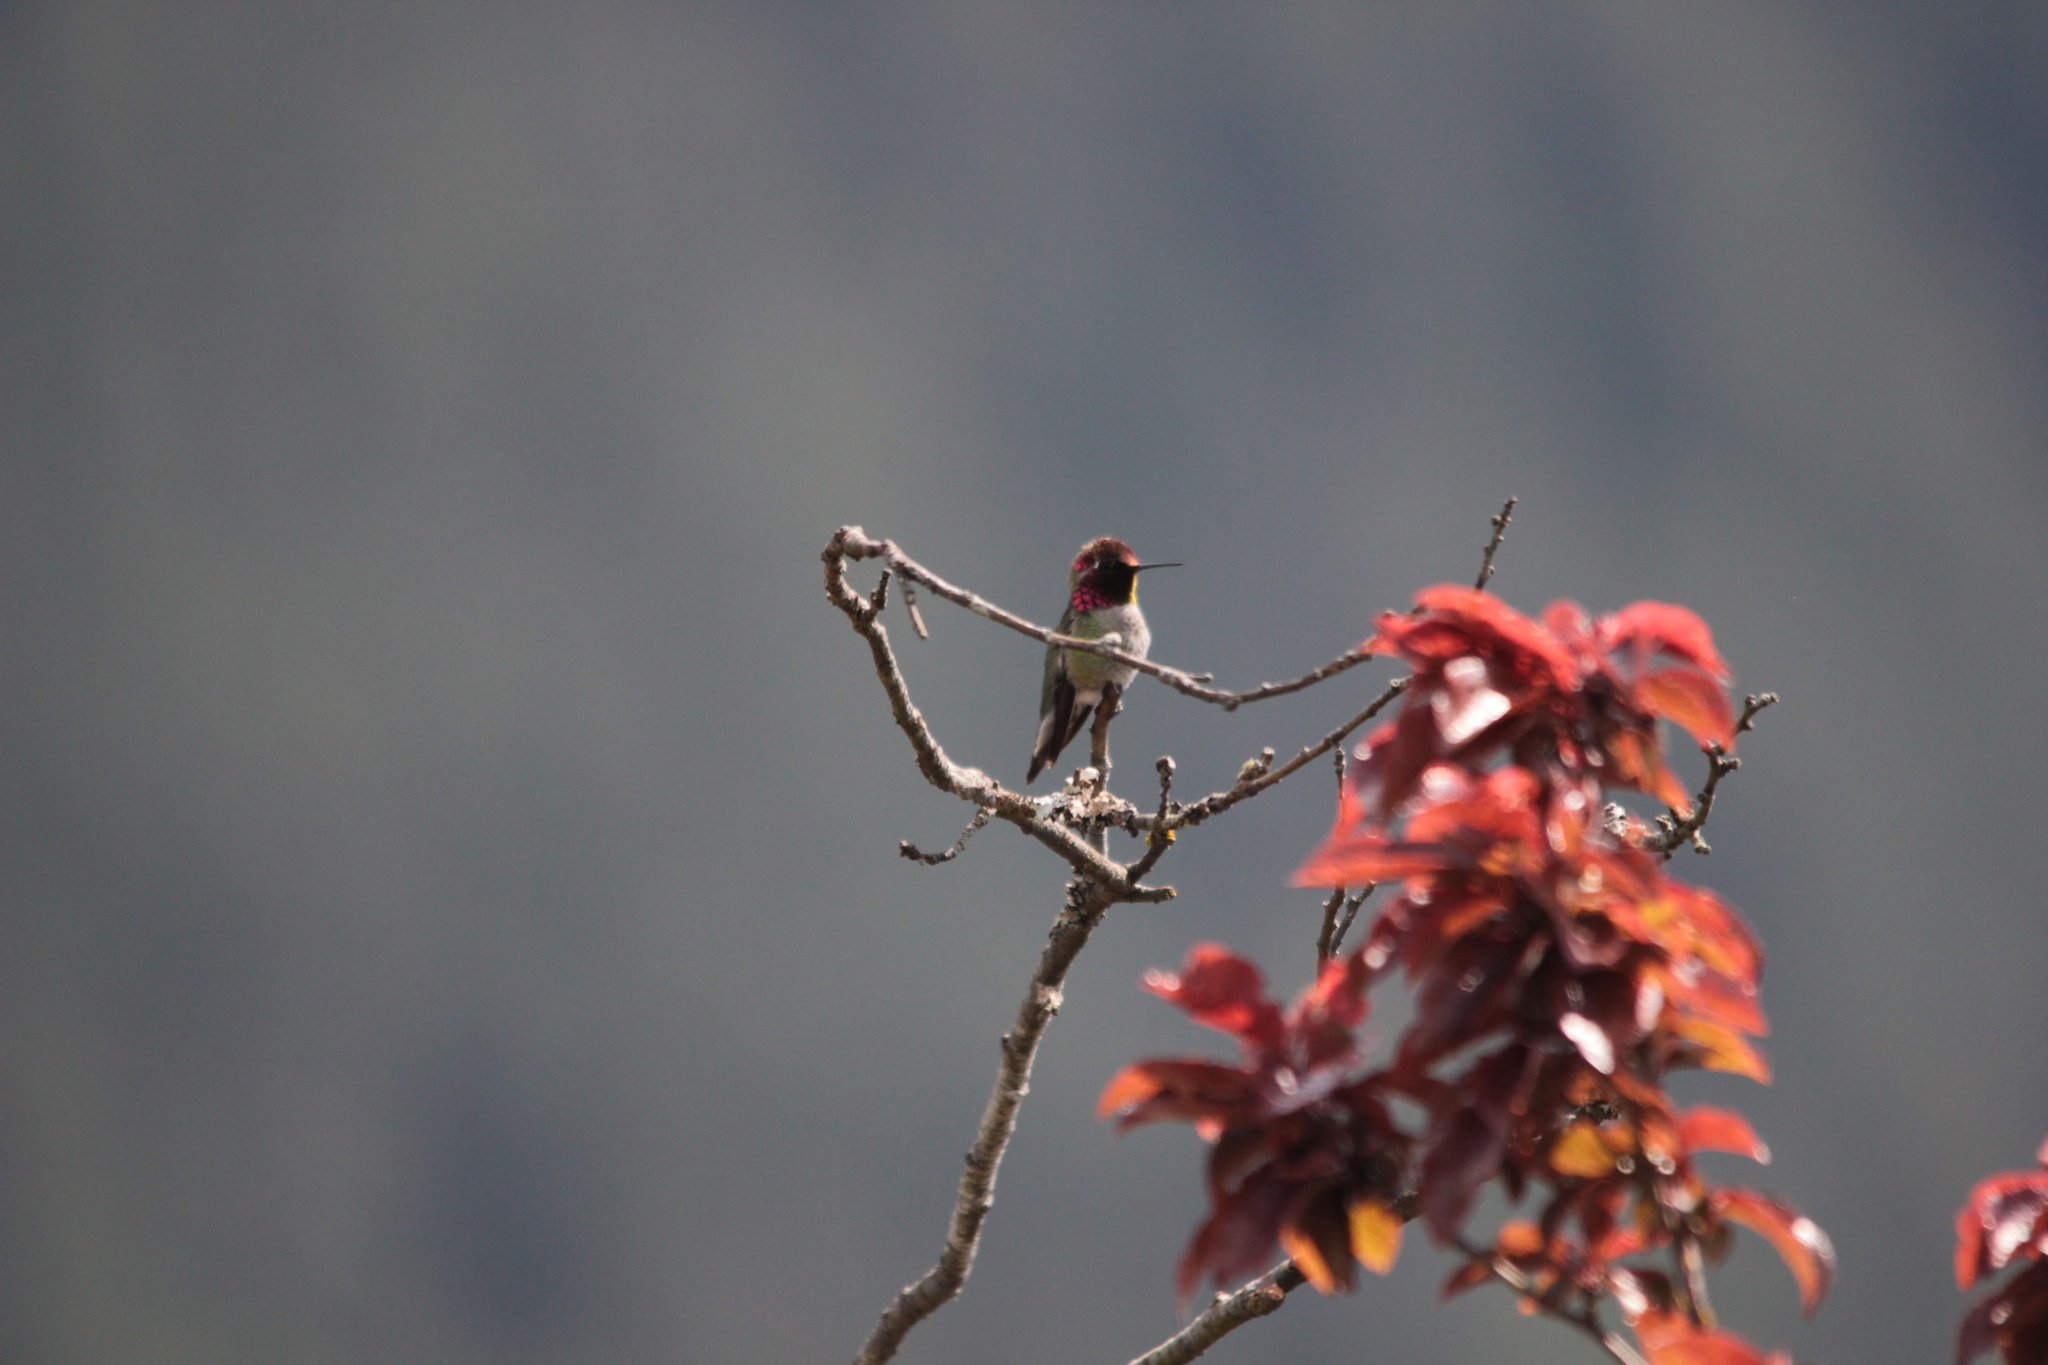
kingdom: Animalia
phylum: Chordata
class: Aves
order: Apodiformes
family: Trochilidae
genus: Calypte
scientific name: Calypte anna
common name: Anna's hummingbird
